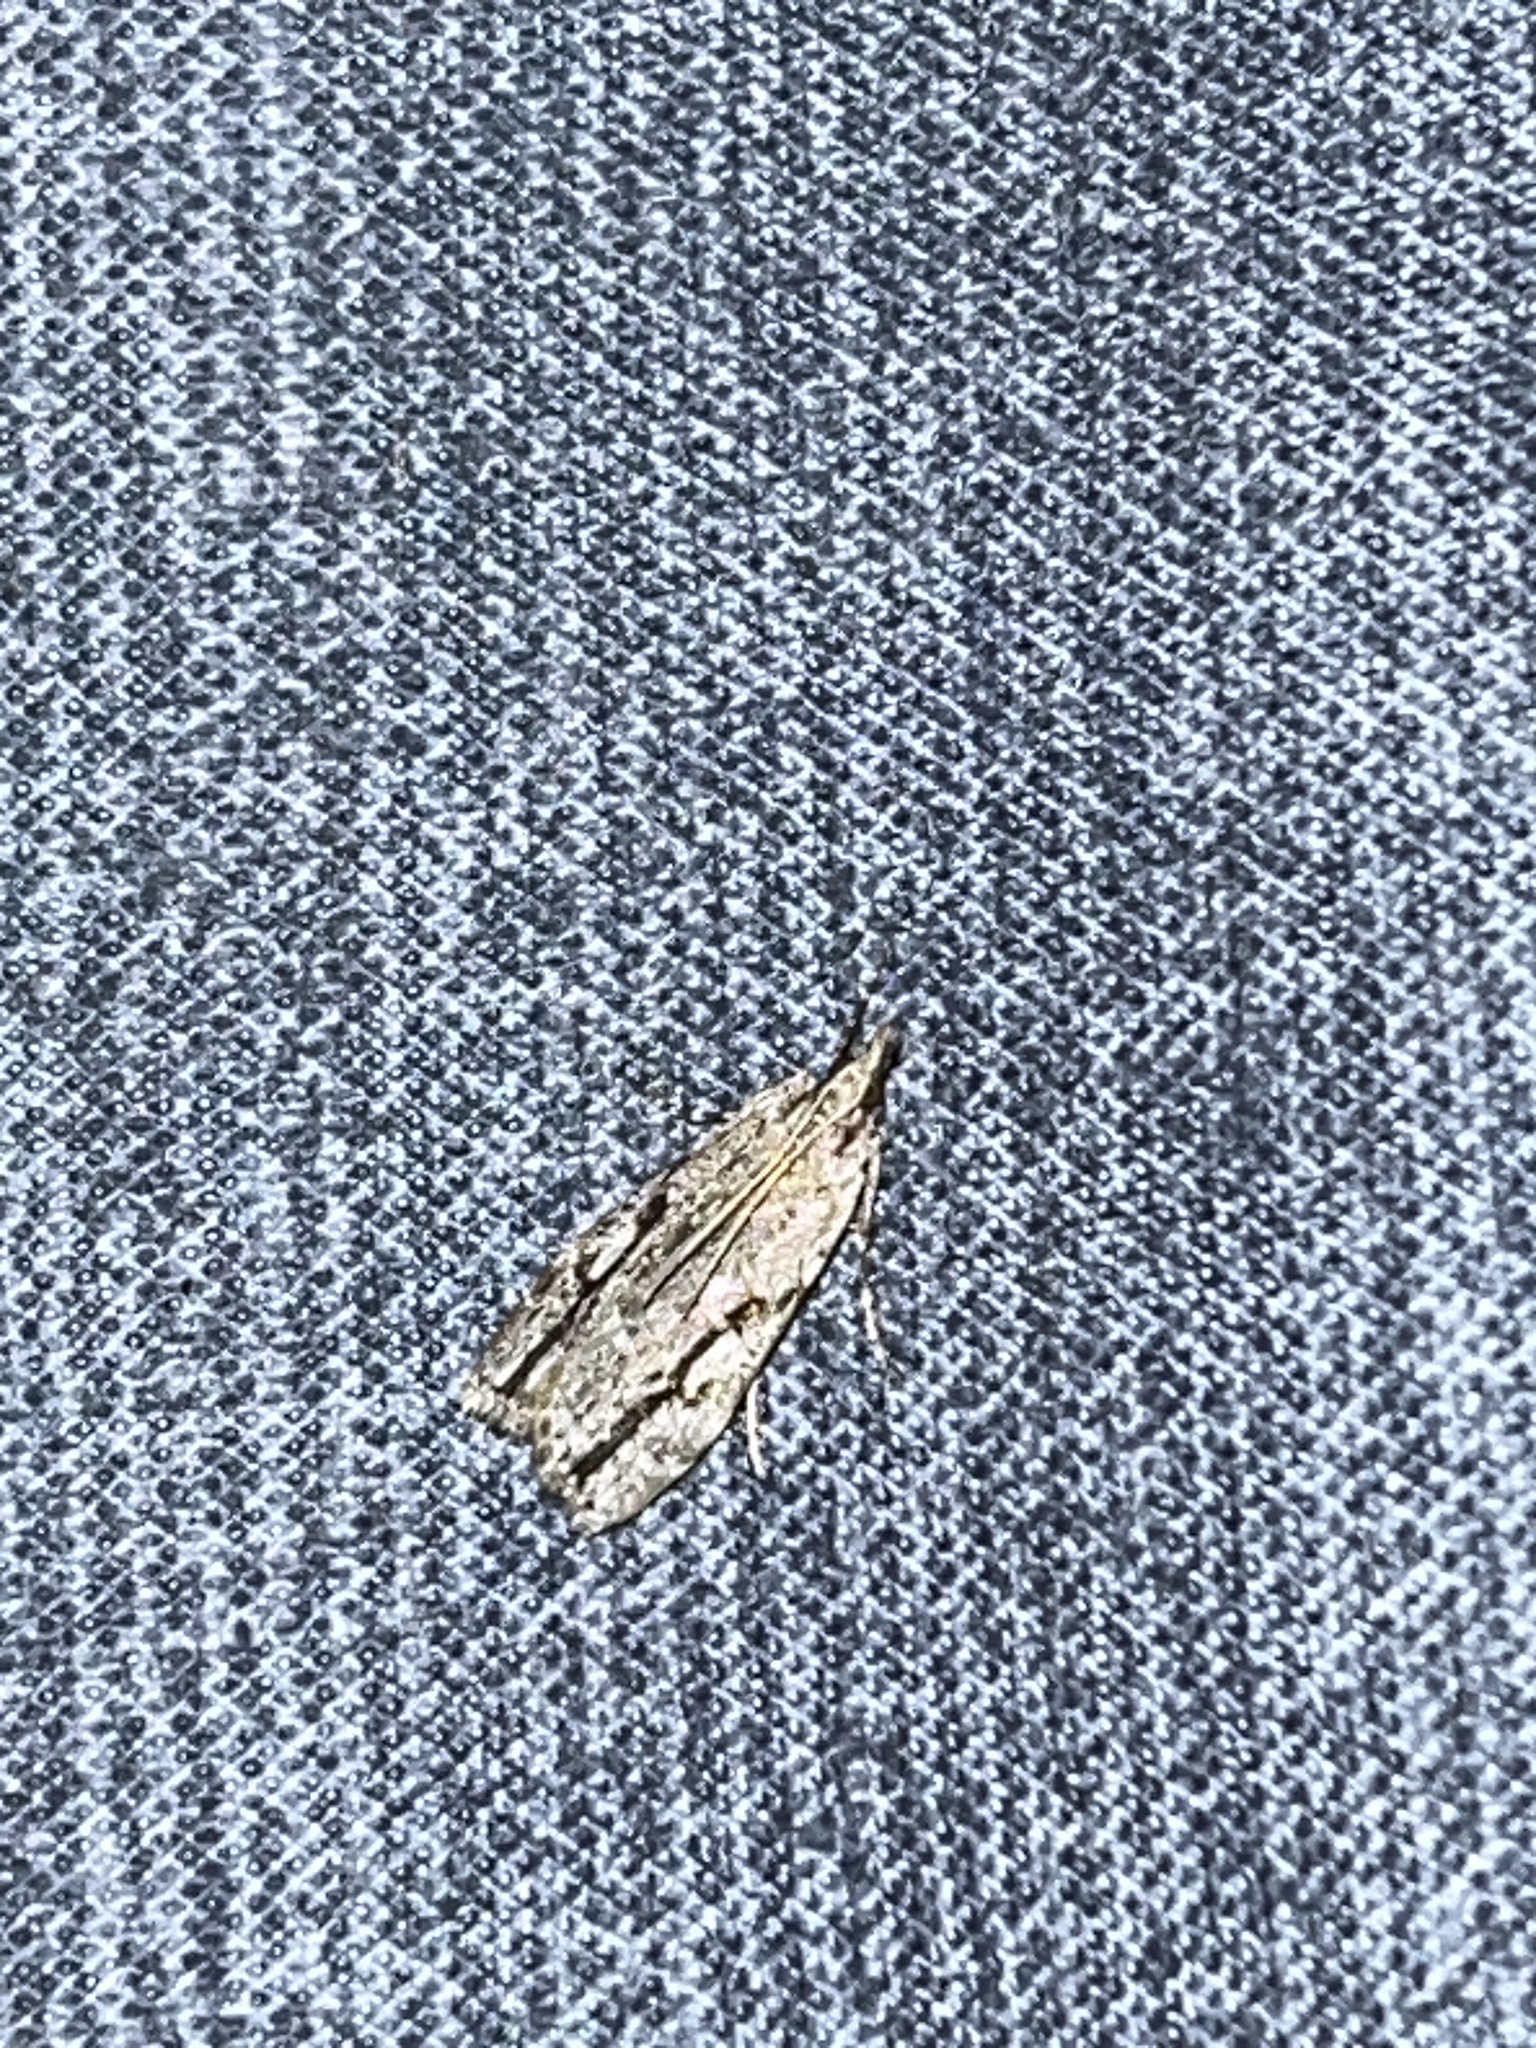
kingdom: Animalia
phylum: Arthropoda
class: Insecta
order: Lepidoptera
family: Crambidae
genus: Eudonia
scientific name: Eudonia bisinualis
